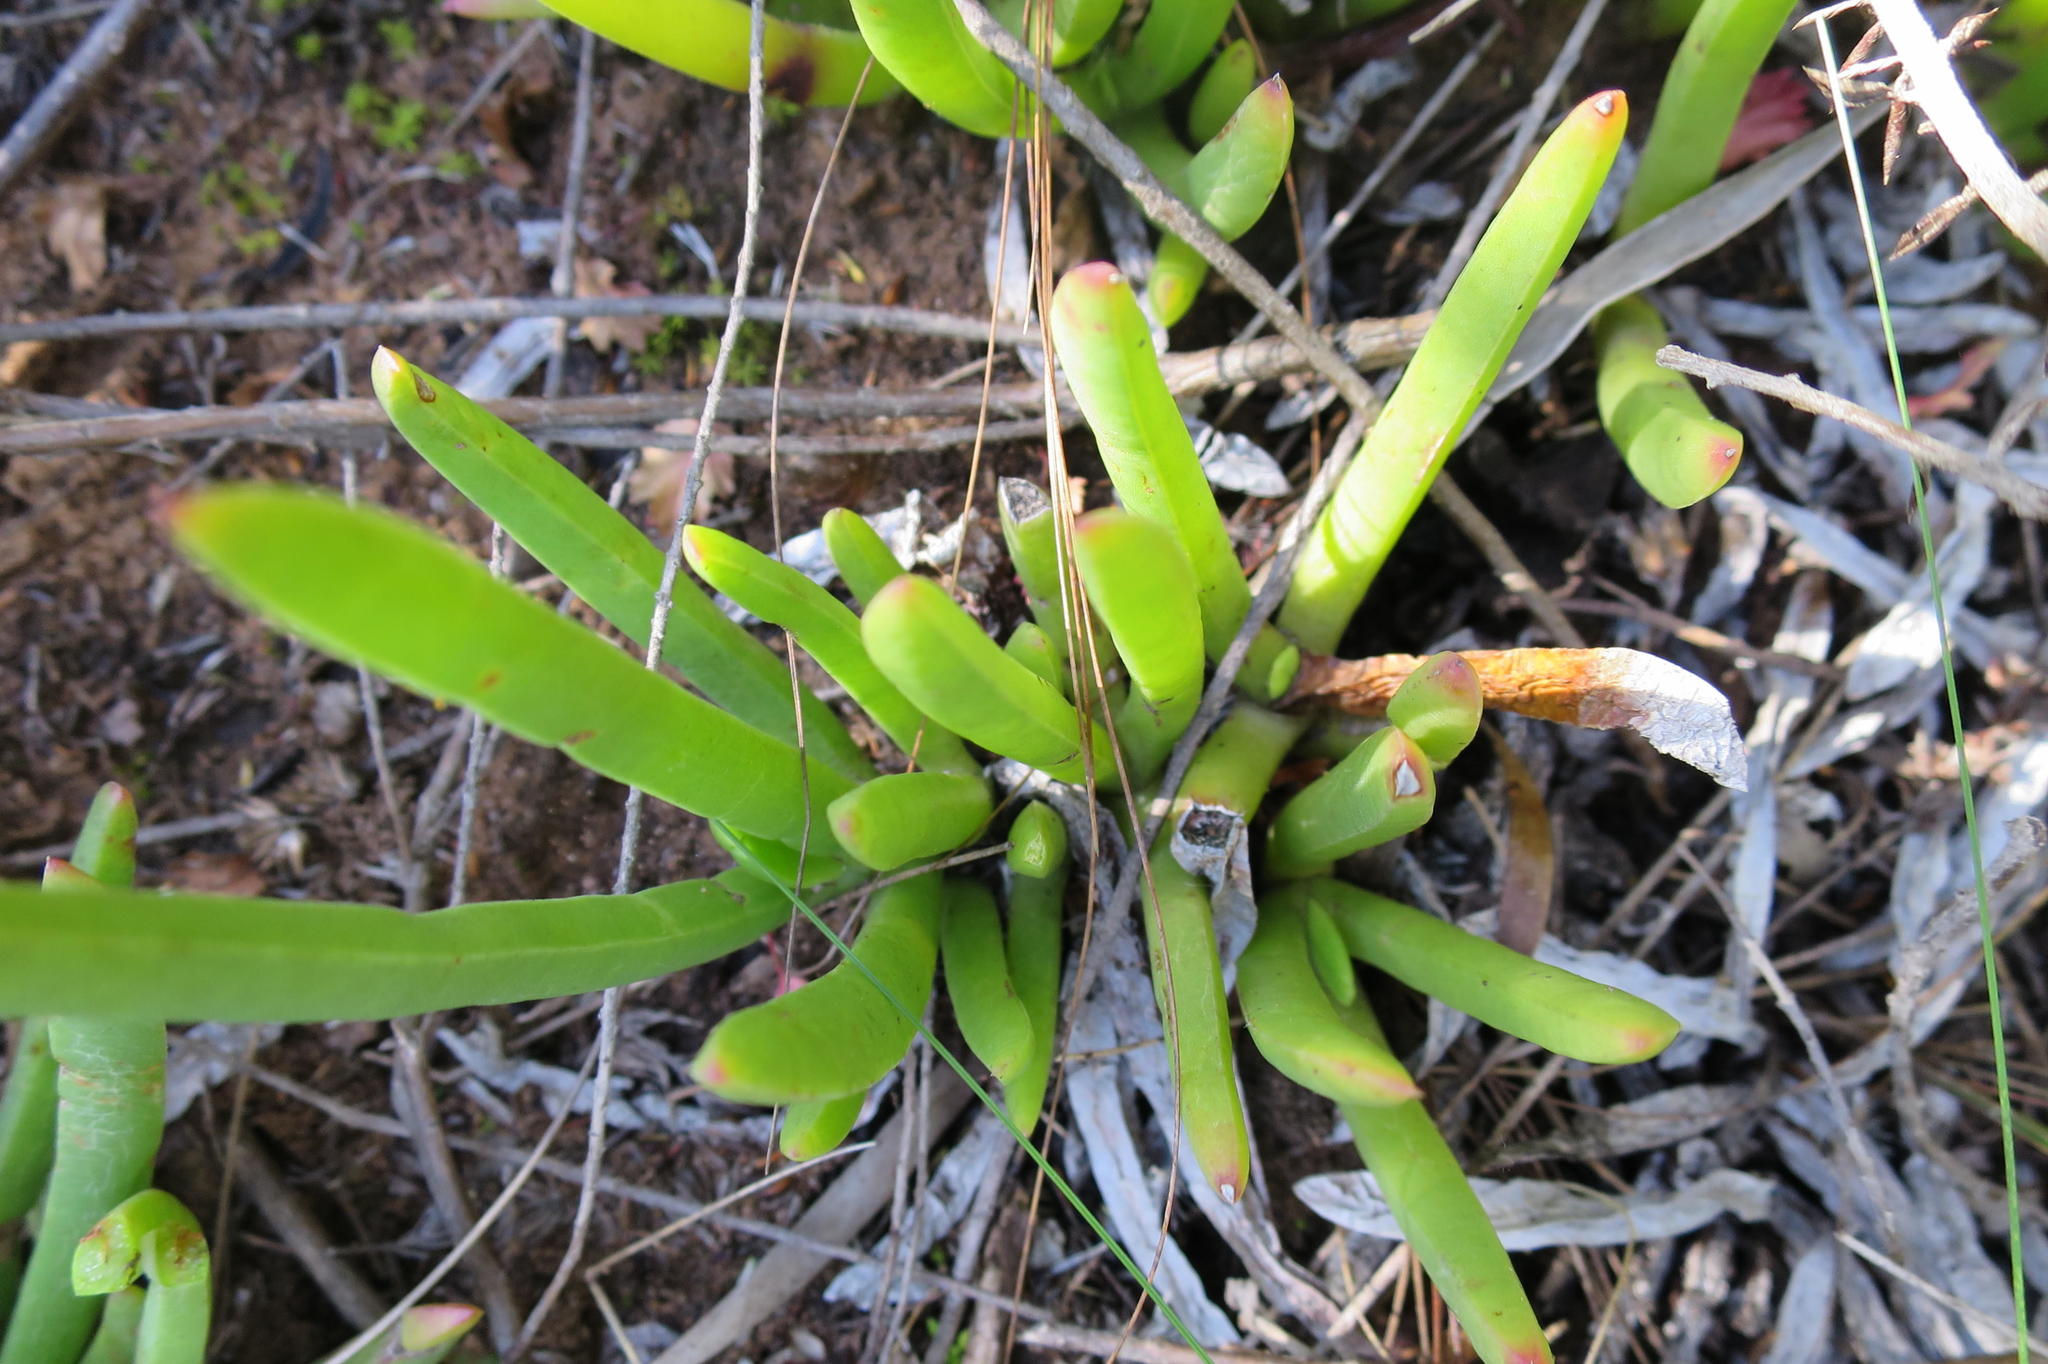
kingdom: Plantae
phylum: Tracheophyta
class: Magnoliopsida
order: Caryophyllales
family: Aizoaceae
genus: Carpobrotus
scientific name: Carpobrotus muirii
